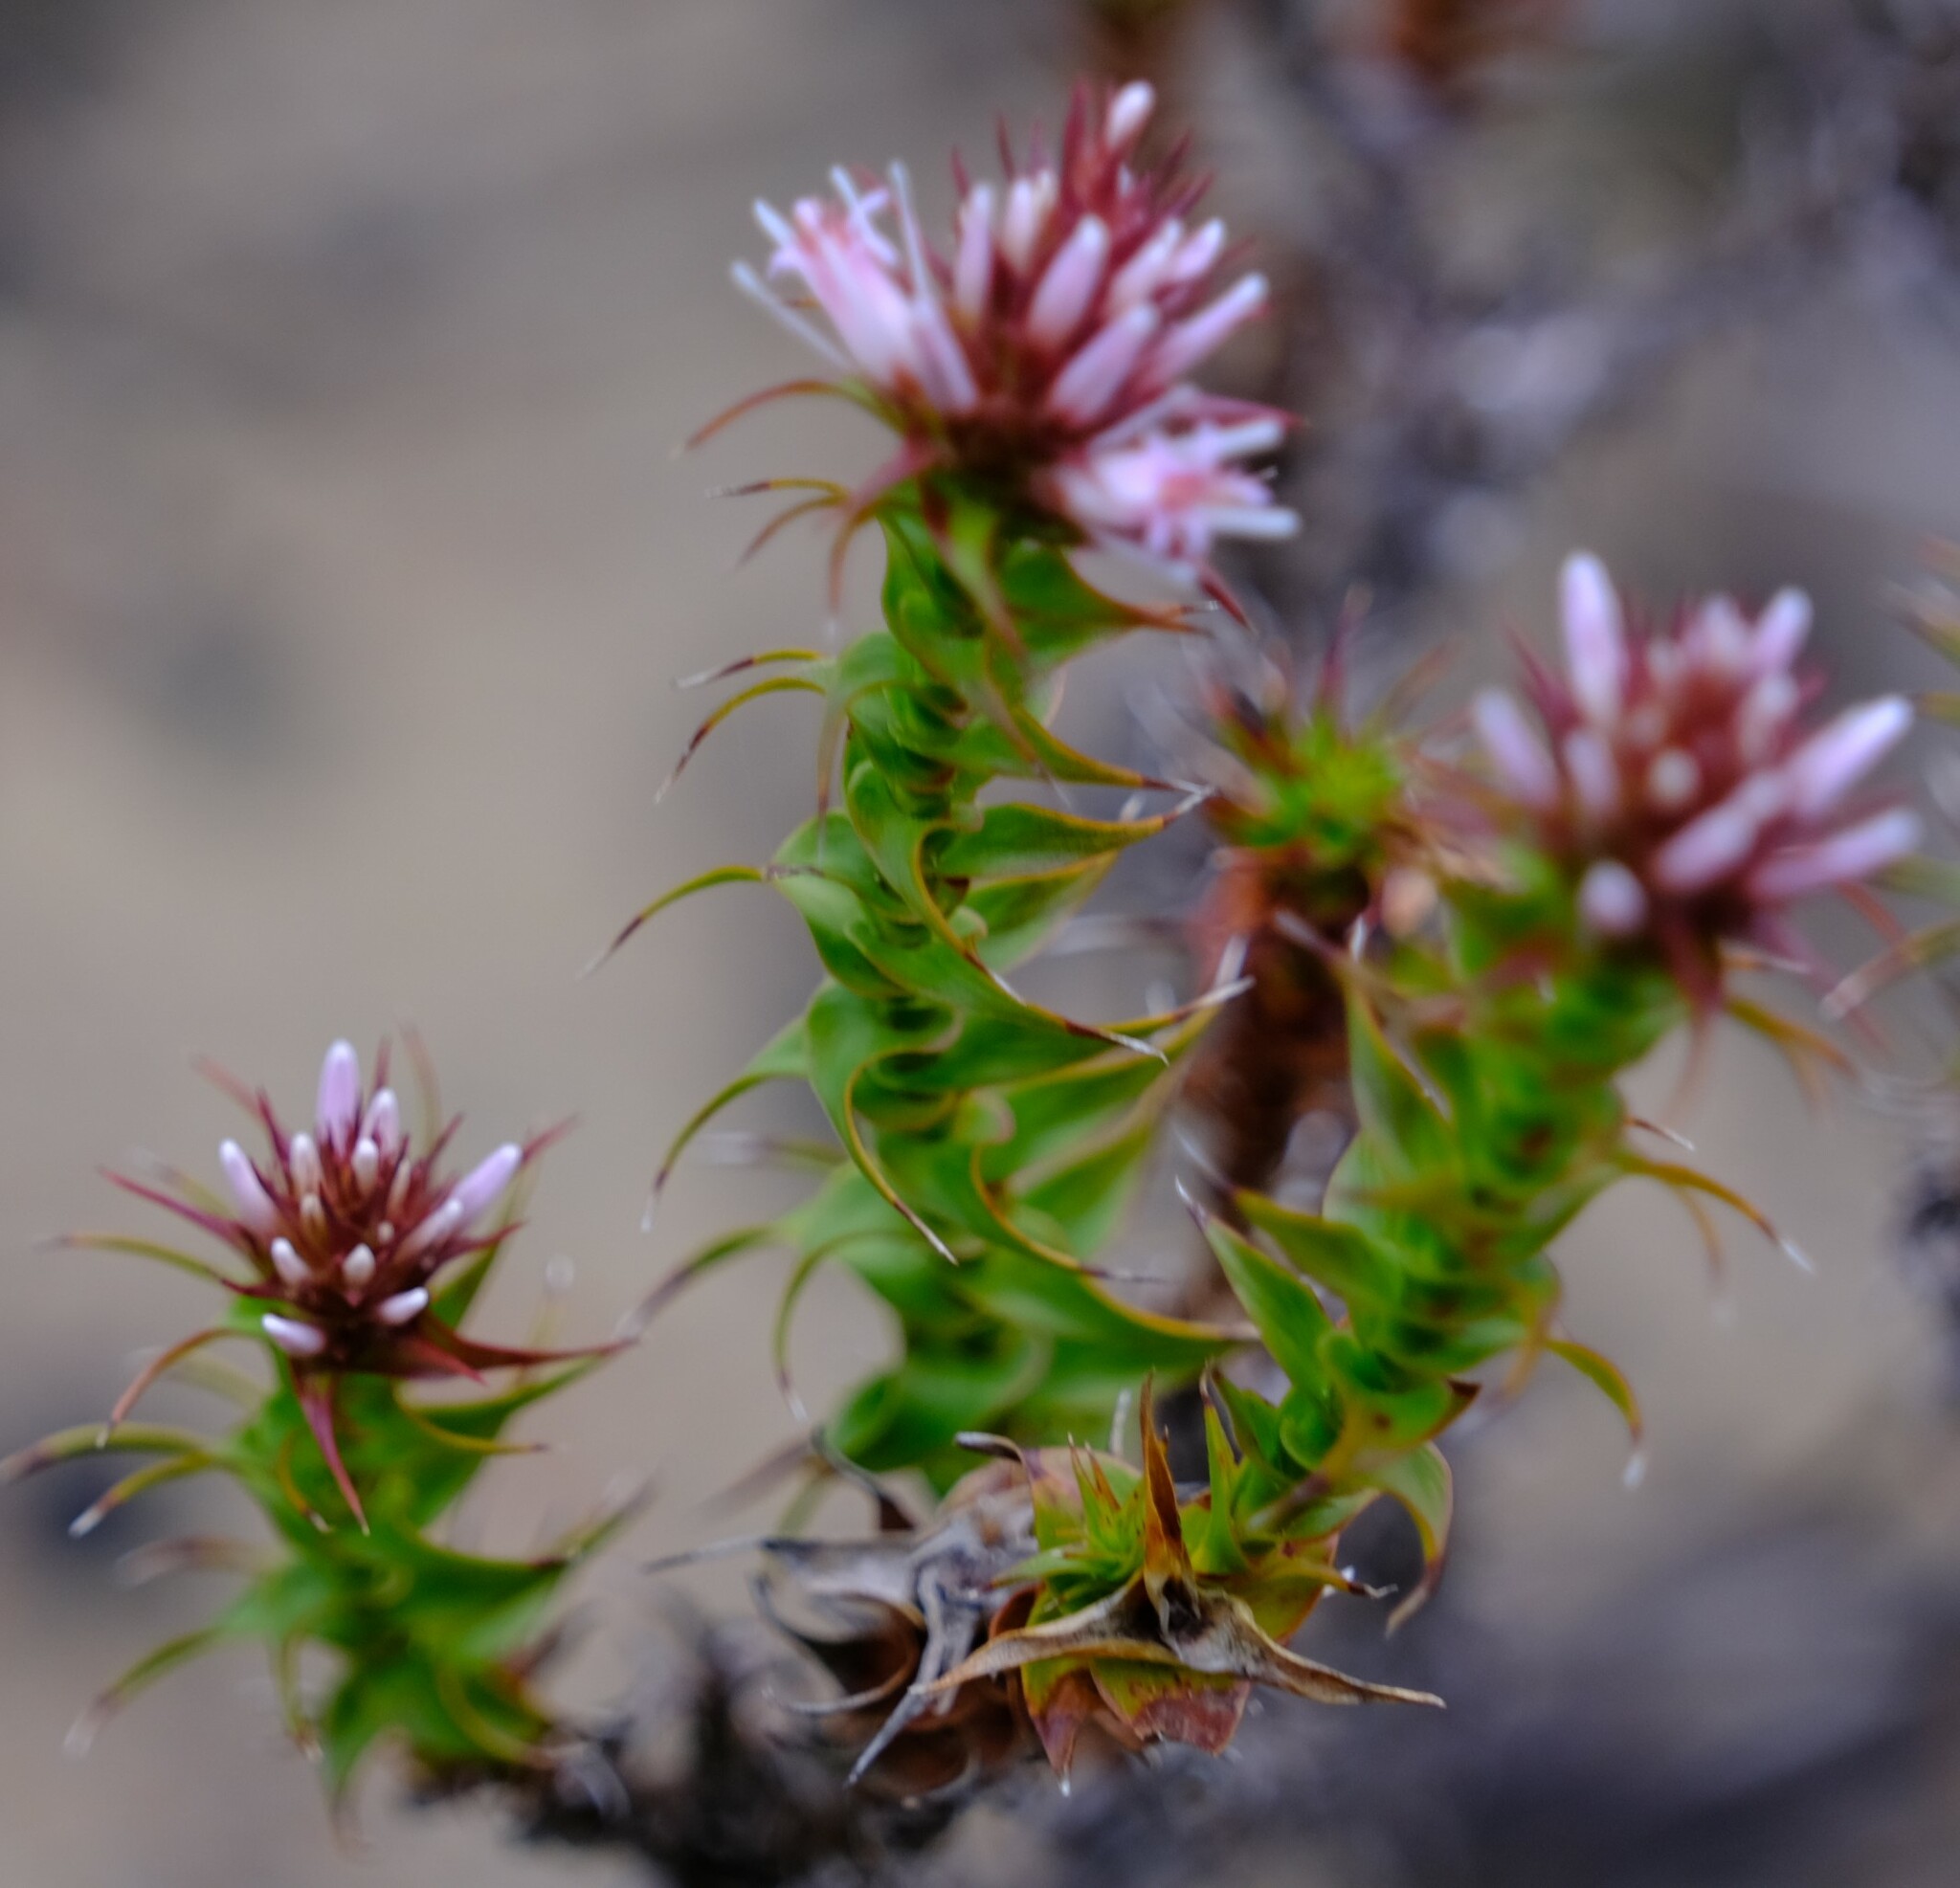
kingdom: Plantae
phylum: Tracheophyta
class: Magnoliopsida
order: Ericales
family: Ericaceae
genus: Andersonia
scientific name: Andersonia lehmanniana
